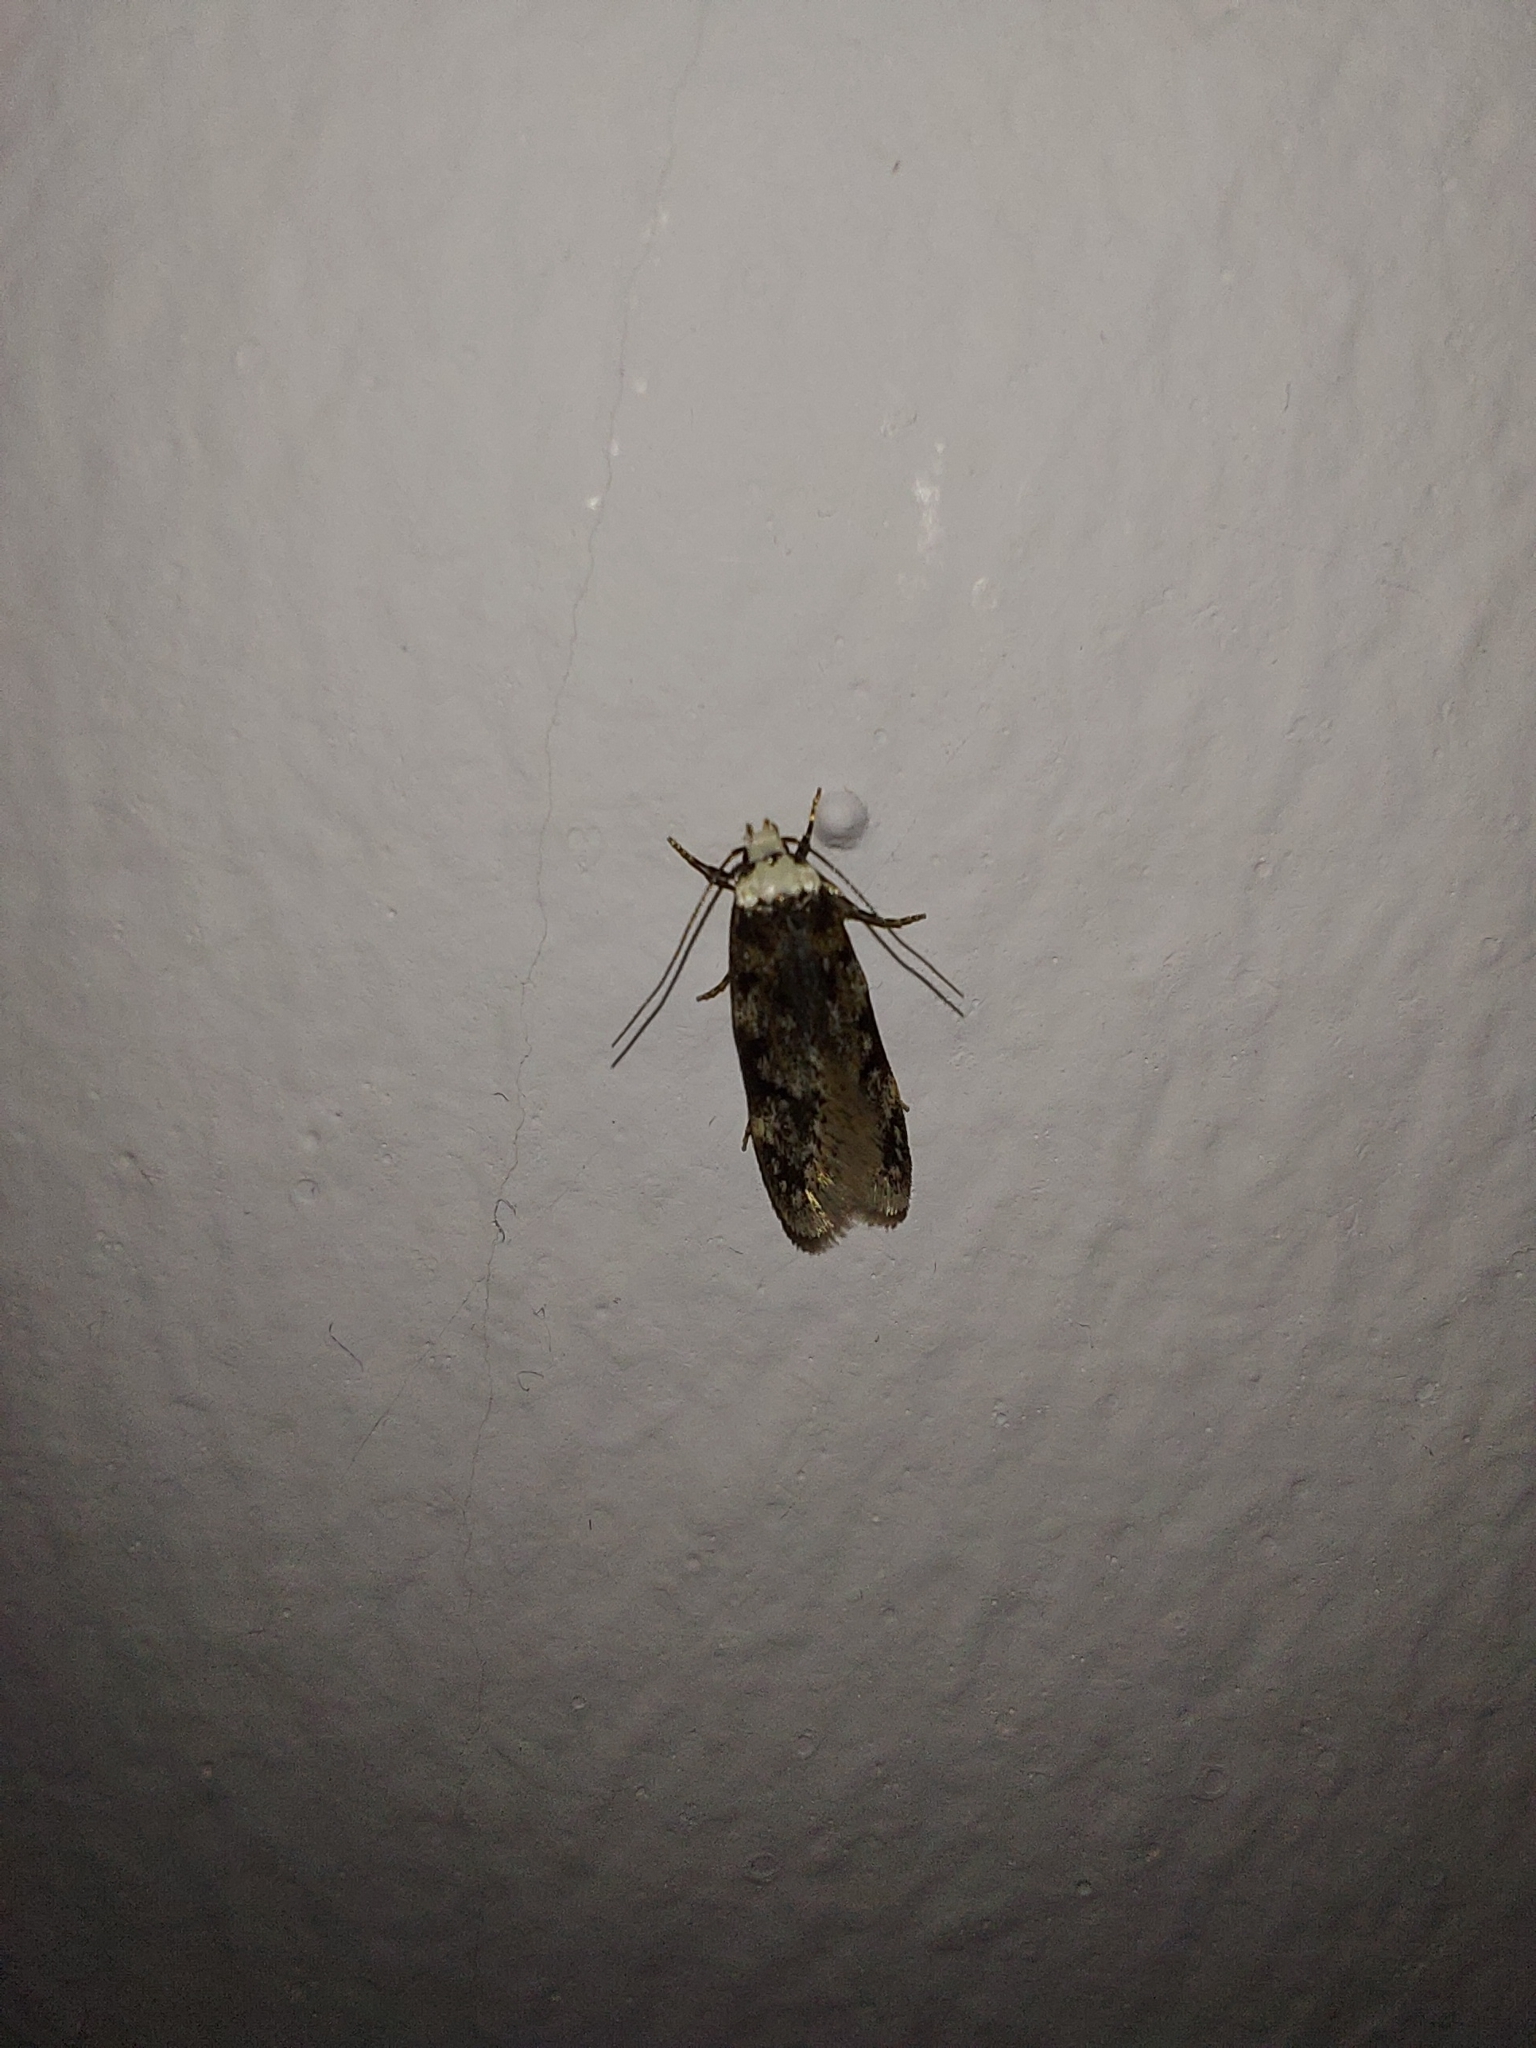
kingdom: Animalia
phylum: Arthropoda
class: Insecta
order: Lepidoptera
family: Oecophoridae
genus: Endrosis
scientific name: Endrosis sarcitrella
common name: White-shouldered house moth
